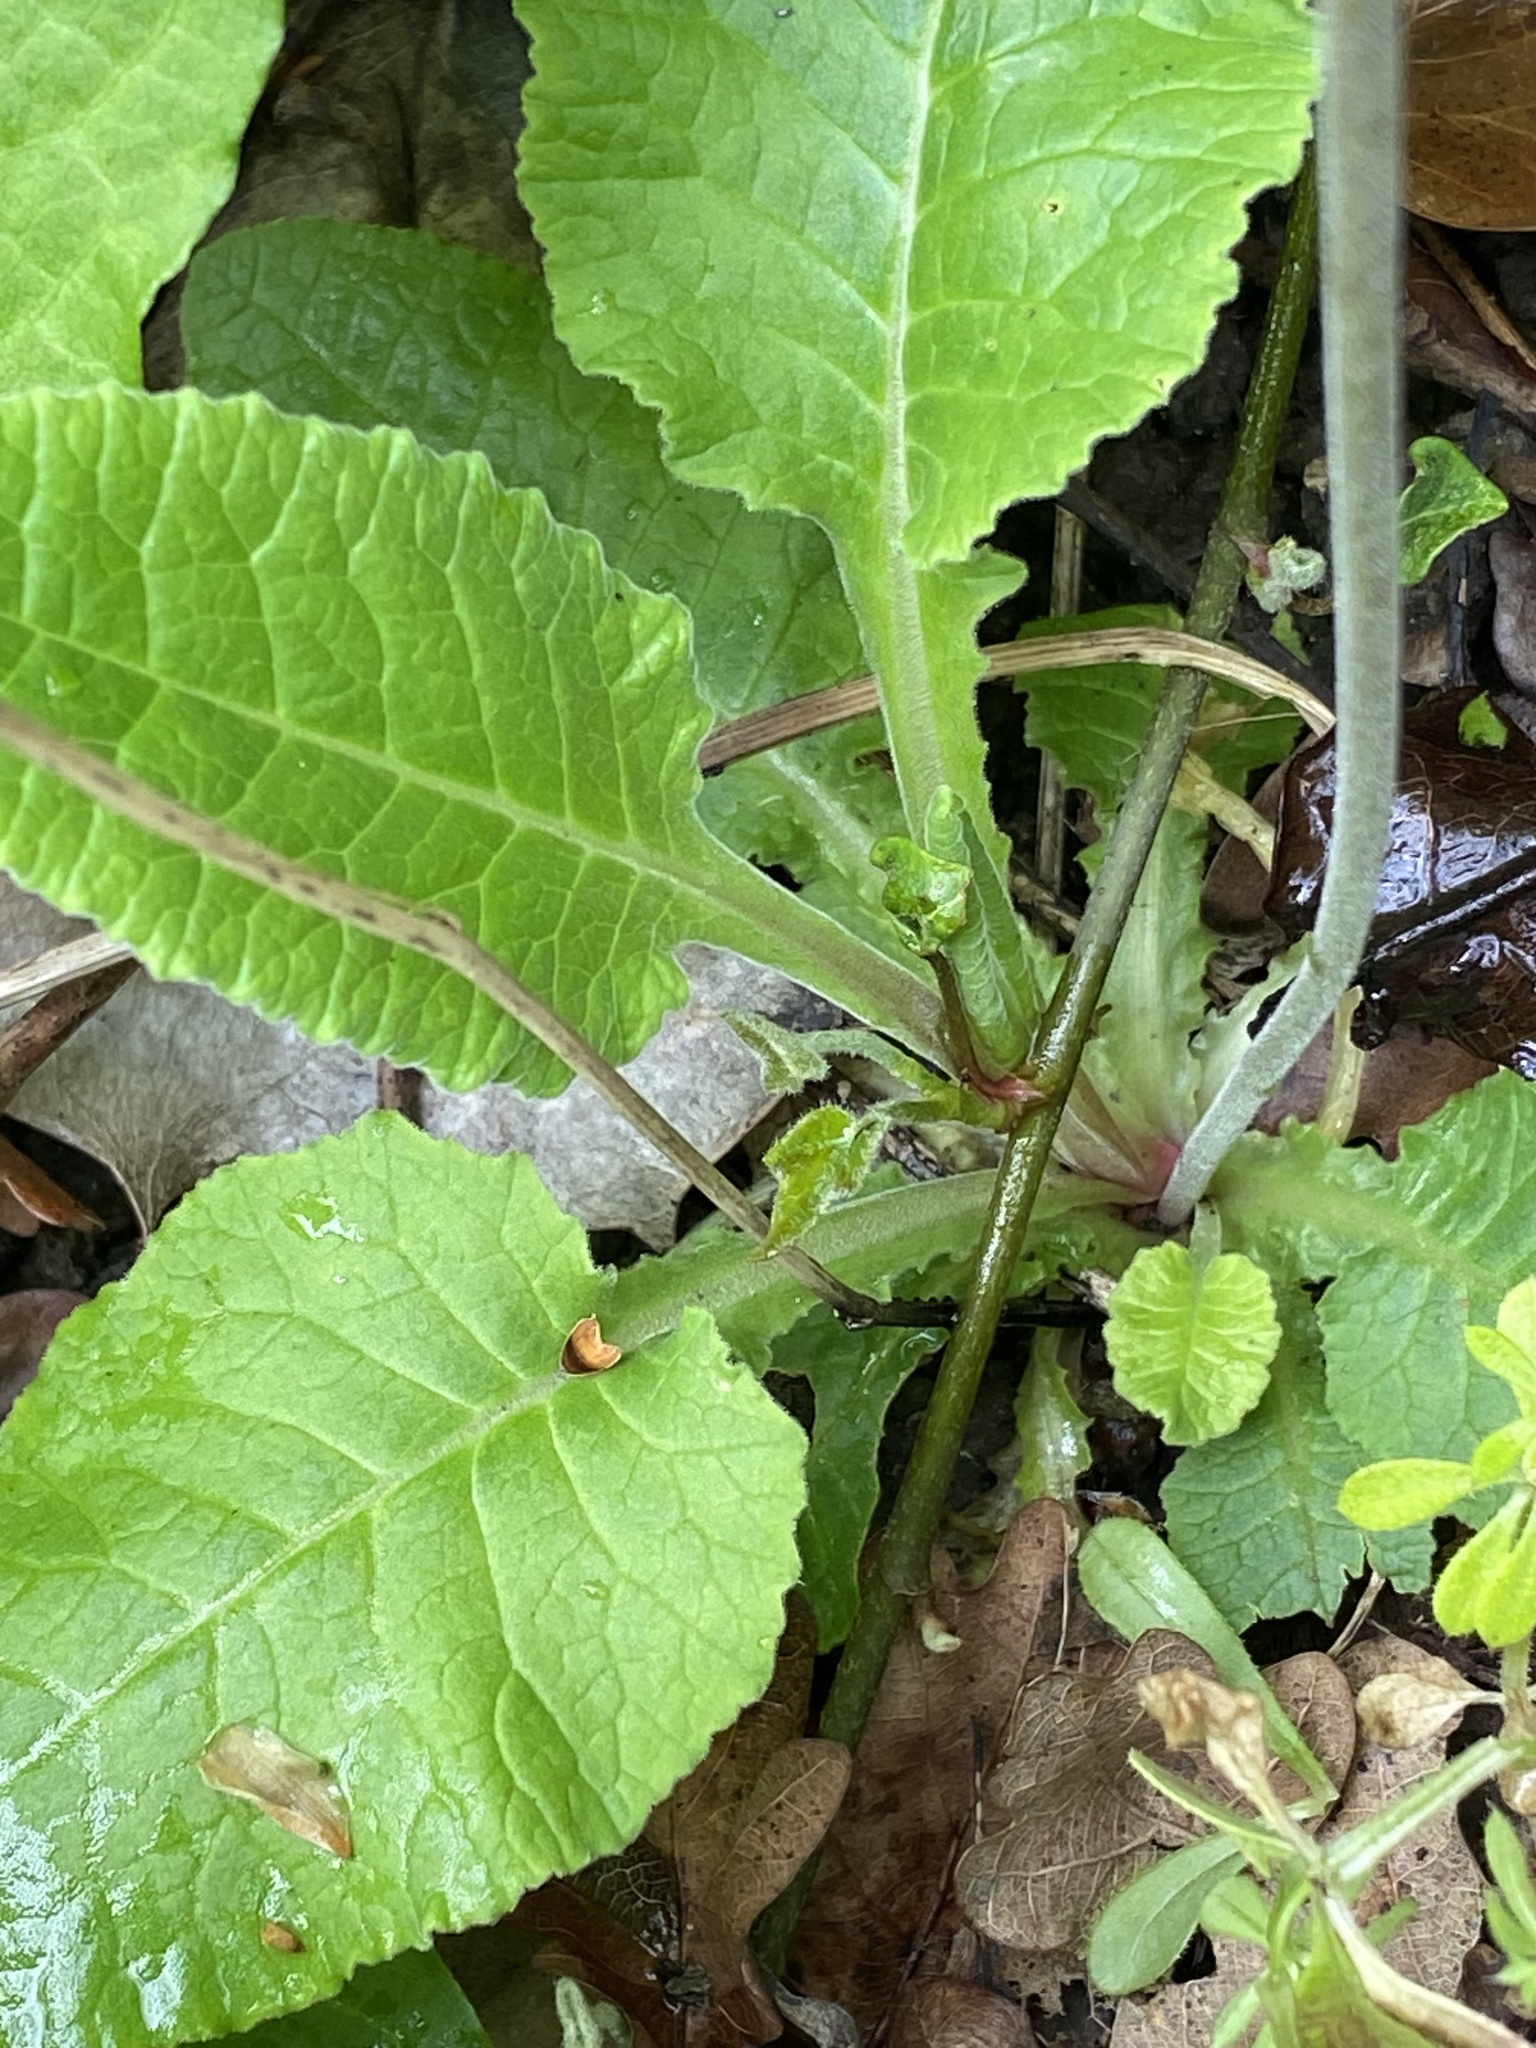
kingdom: Plantae
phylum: Tracheophyta
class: Magnoliopsida
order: Ericales
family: Primulaceae
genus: Primula
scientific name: Primula veris
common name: Cowslip
